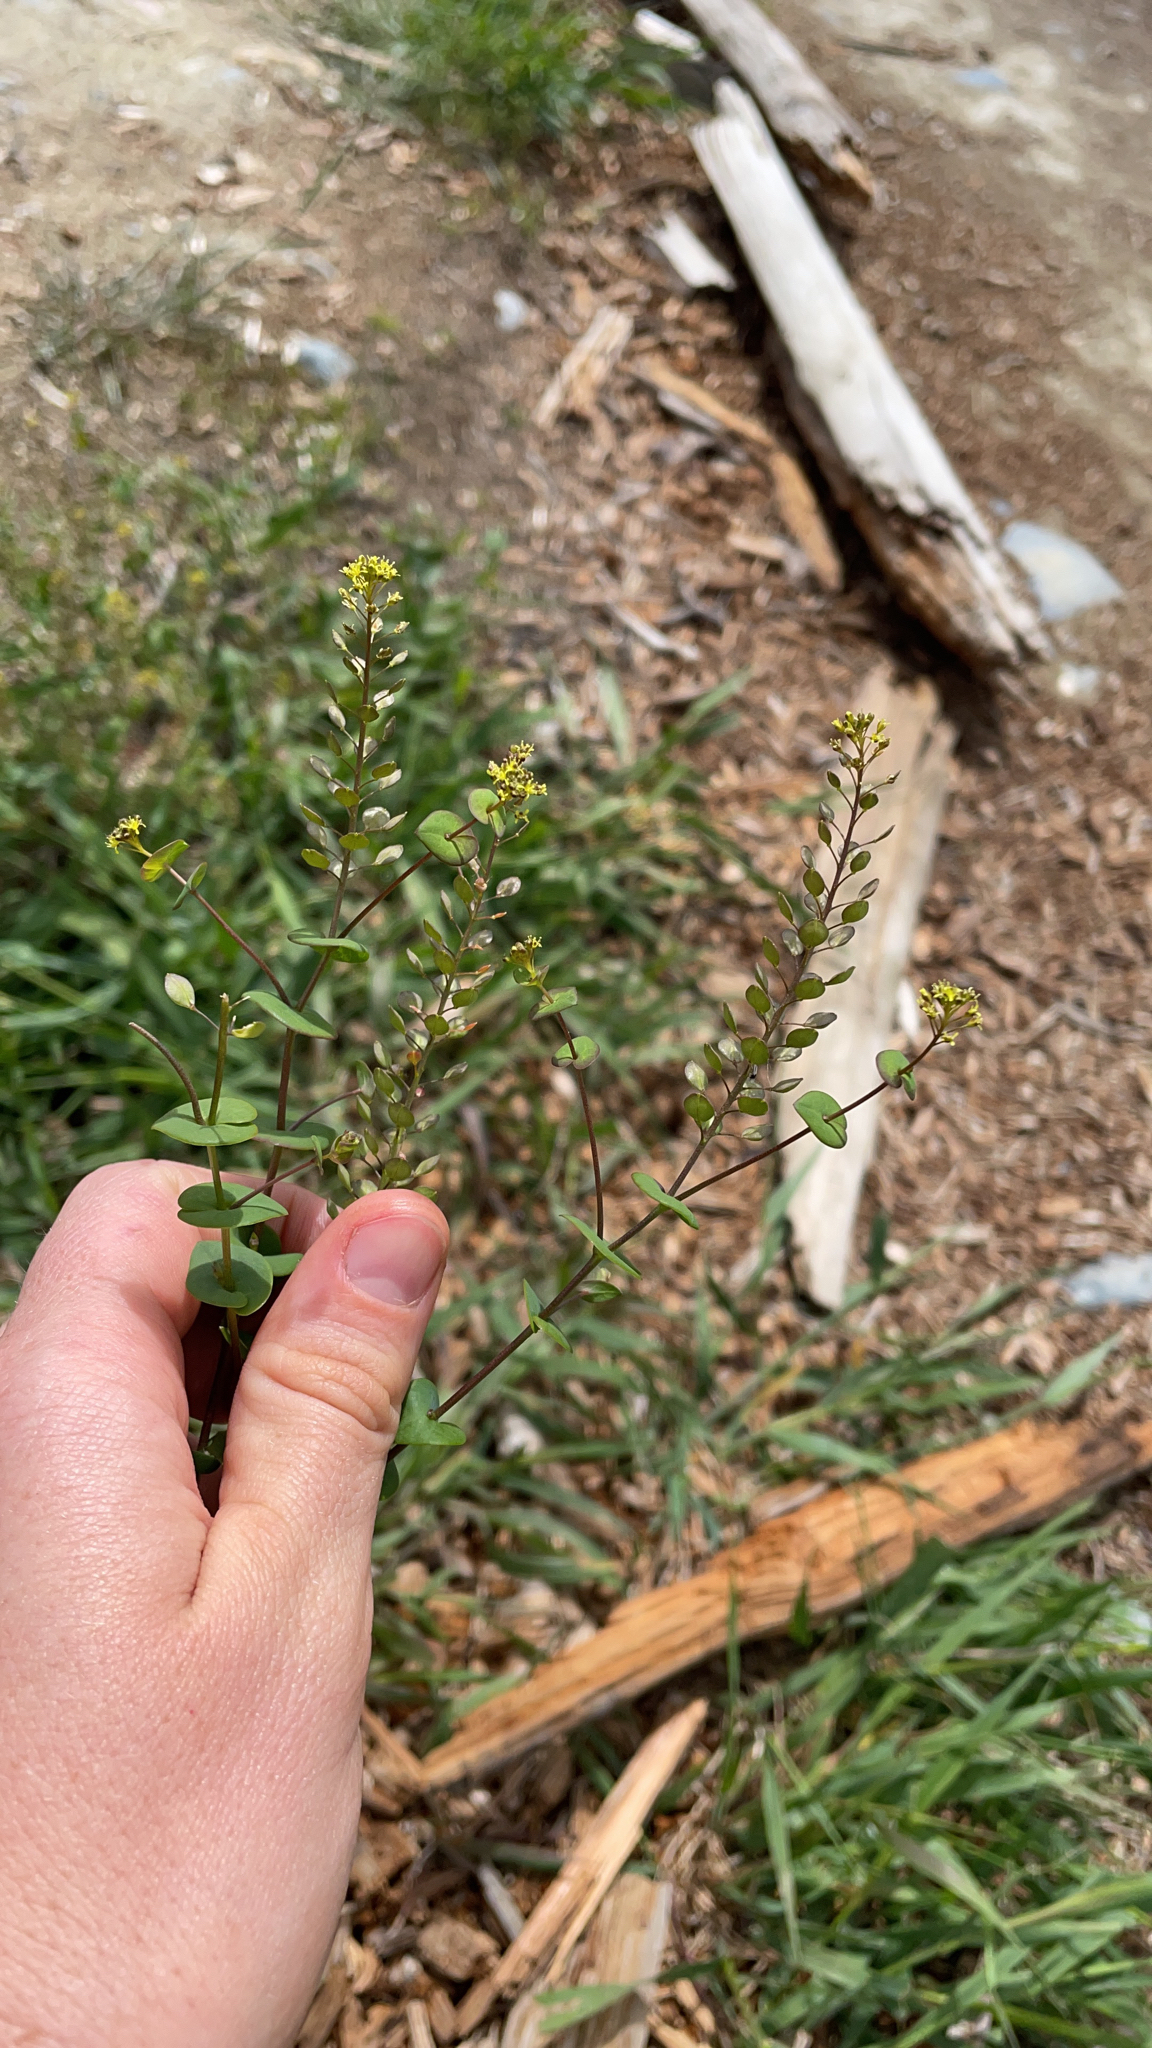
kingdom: Plantae
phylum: Tracheophyta
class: Magnoliopsida
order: Brassicales
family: Brassicaceae
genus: Lepidium
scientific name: Lepidium perfoliatum
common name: Perfoliate pepperwort
